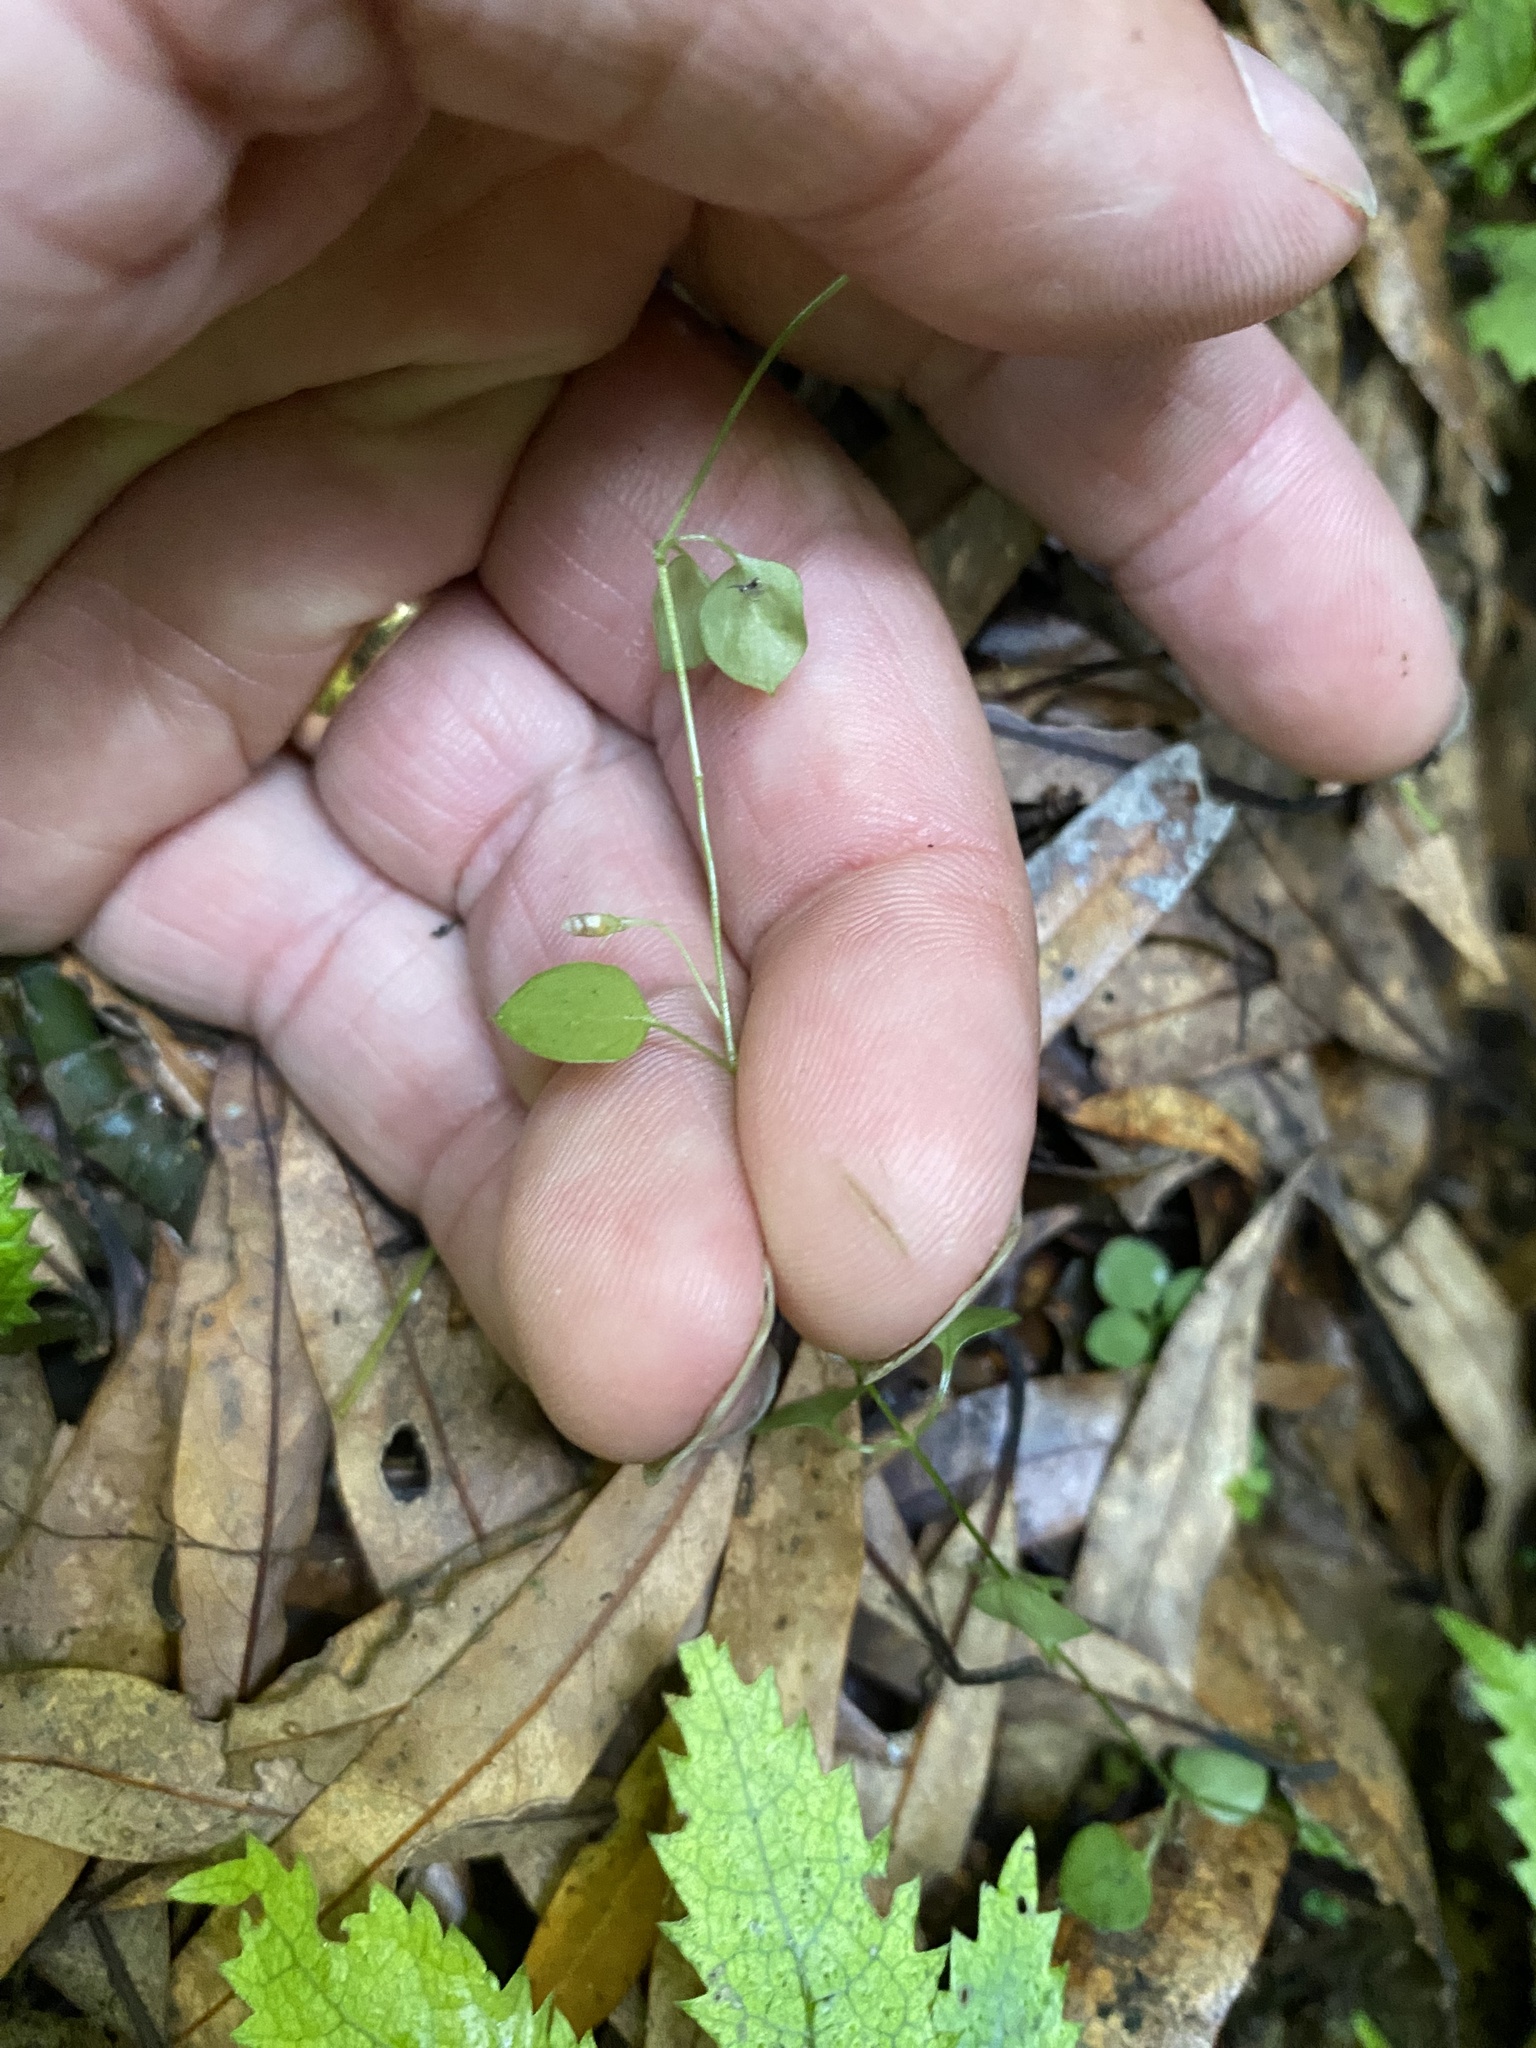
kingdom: Plantae
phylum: Tracheophyta
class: Magnoliopsida
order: Caryophyllales
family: Caryophyllaceae
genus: Stellaria
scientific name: Stellaria parviflora
